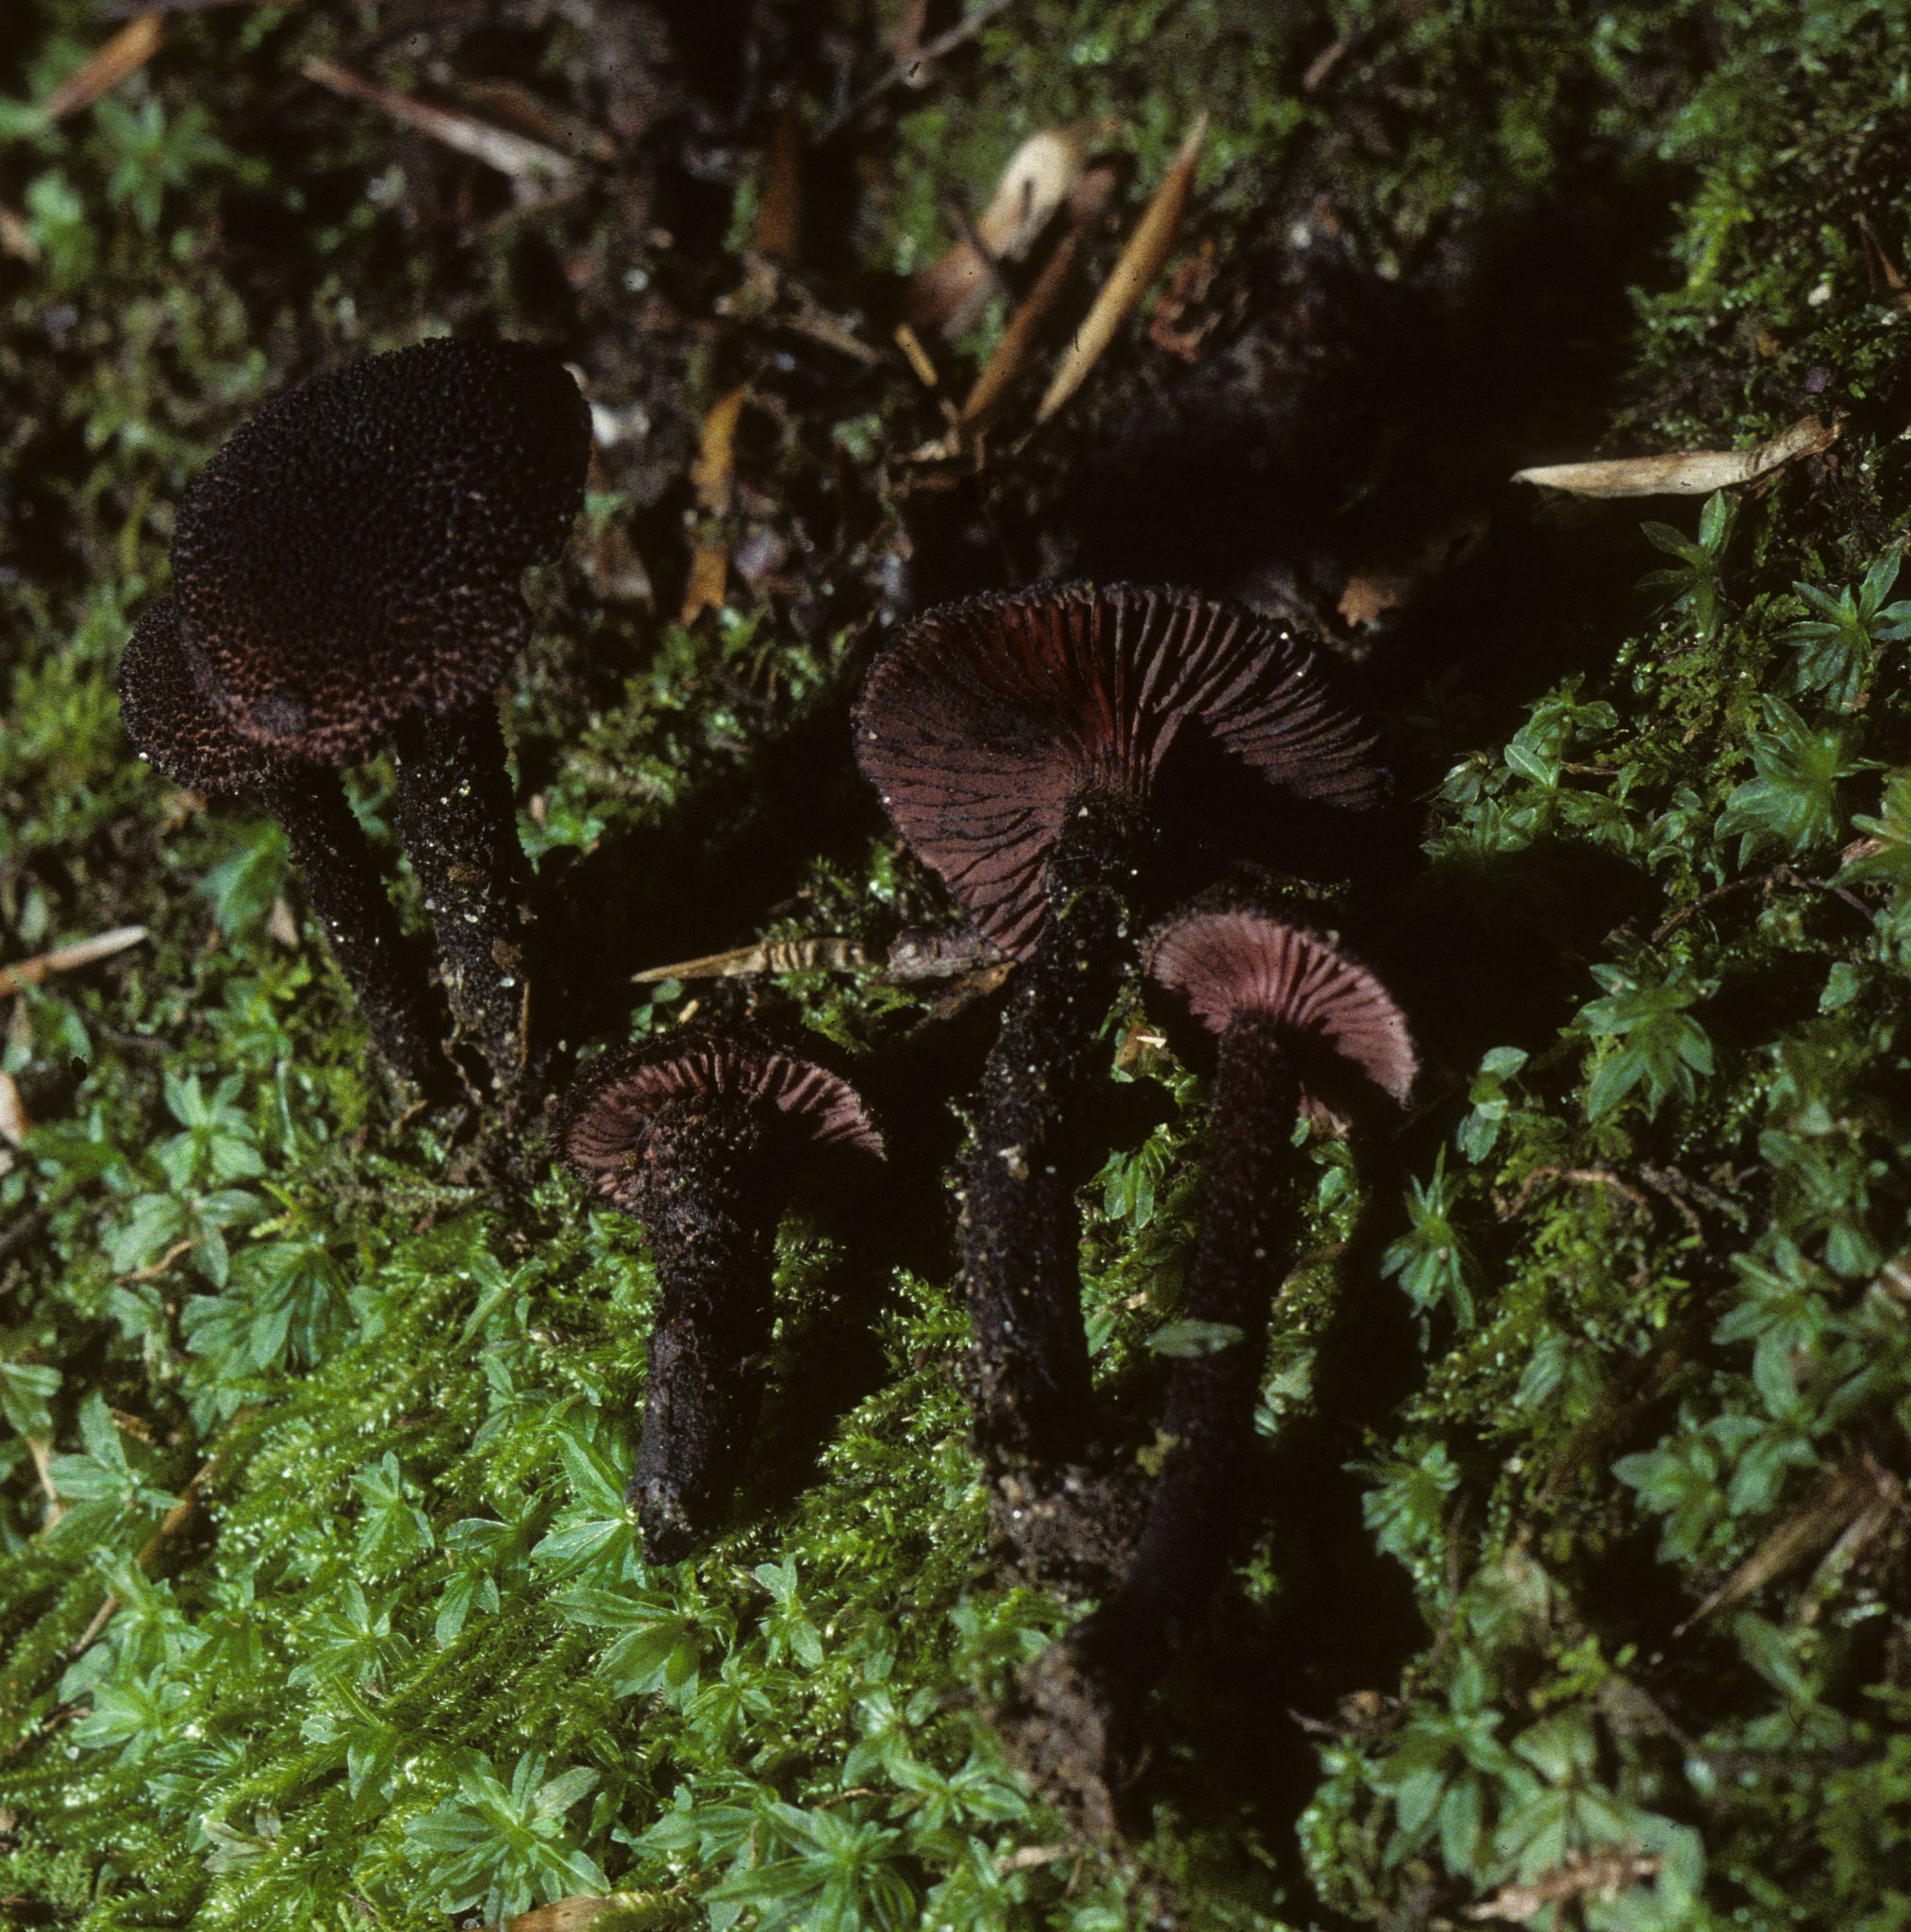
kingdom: Fungi
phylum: Basidiomycota
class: Agaricomycetes
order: Agaricales
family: Inocybaceae
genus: Inocybe
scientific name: Inocybe tahquamenonensis
